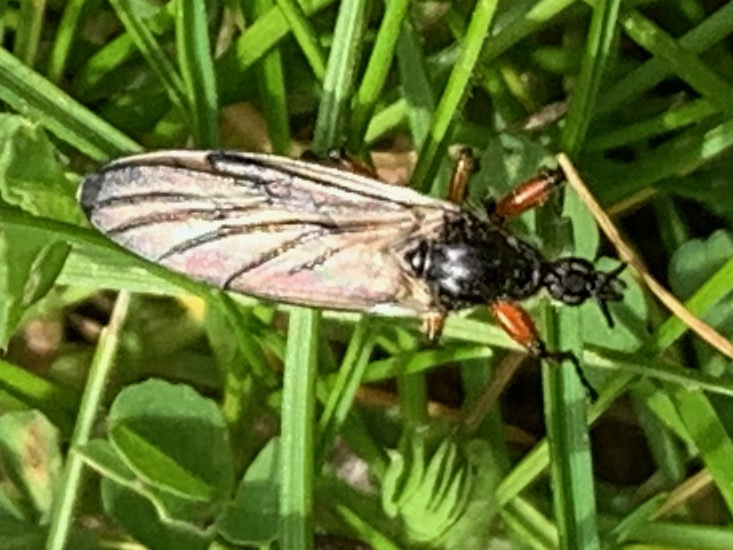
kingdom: Animalia
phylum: Arthropoda
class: Insecta
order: Diptera
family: Bibionidae
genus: Bibio
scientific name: Bibio
